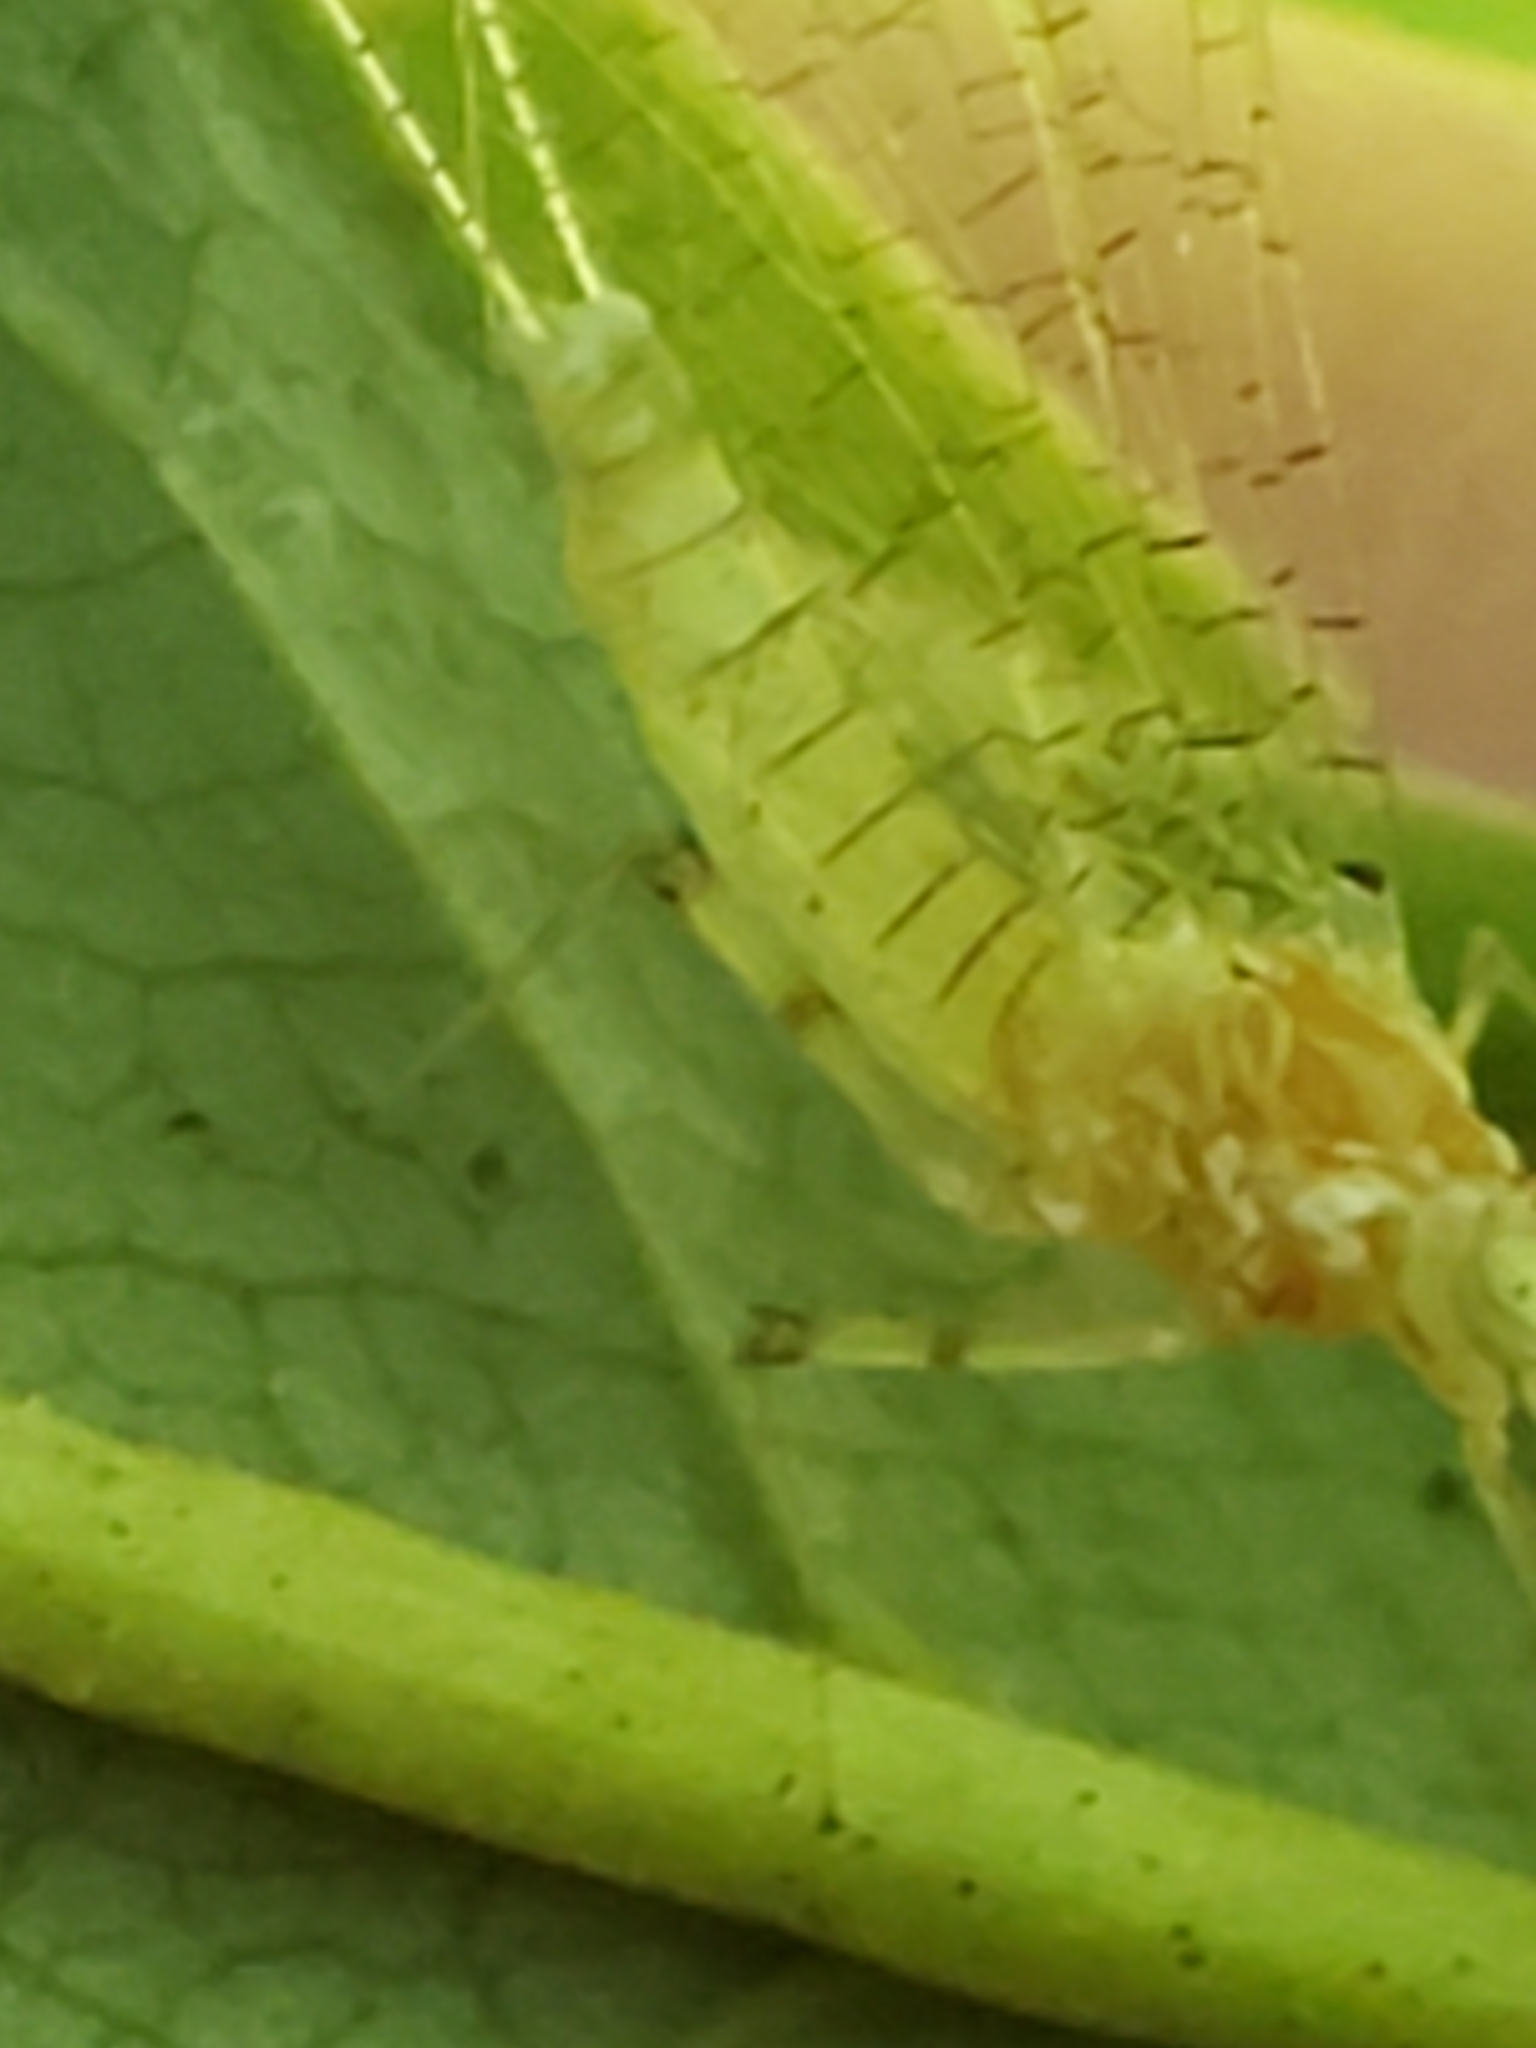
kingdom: Animalia
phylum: Arthropoda
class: Insecta
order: Ephemeroptera
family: Heptageniidae
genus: Stenacron
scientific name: Stenacron interpunctatum
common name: Orange cahill
